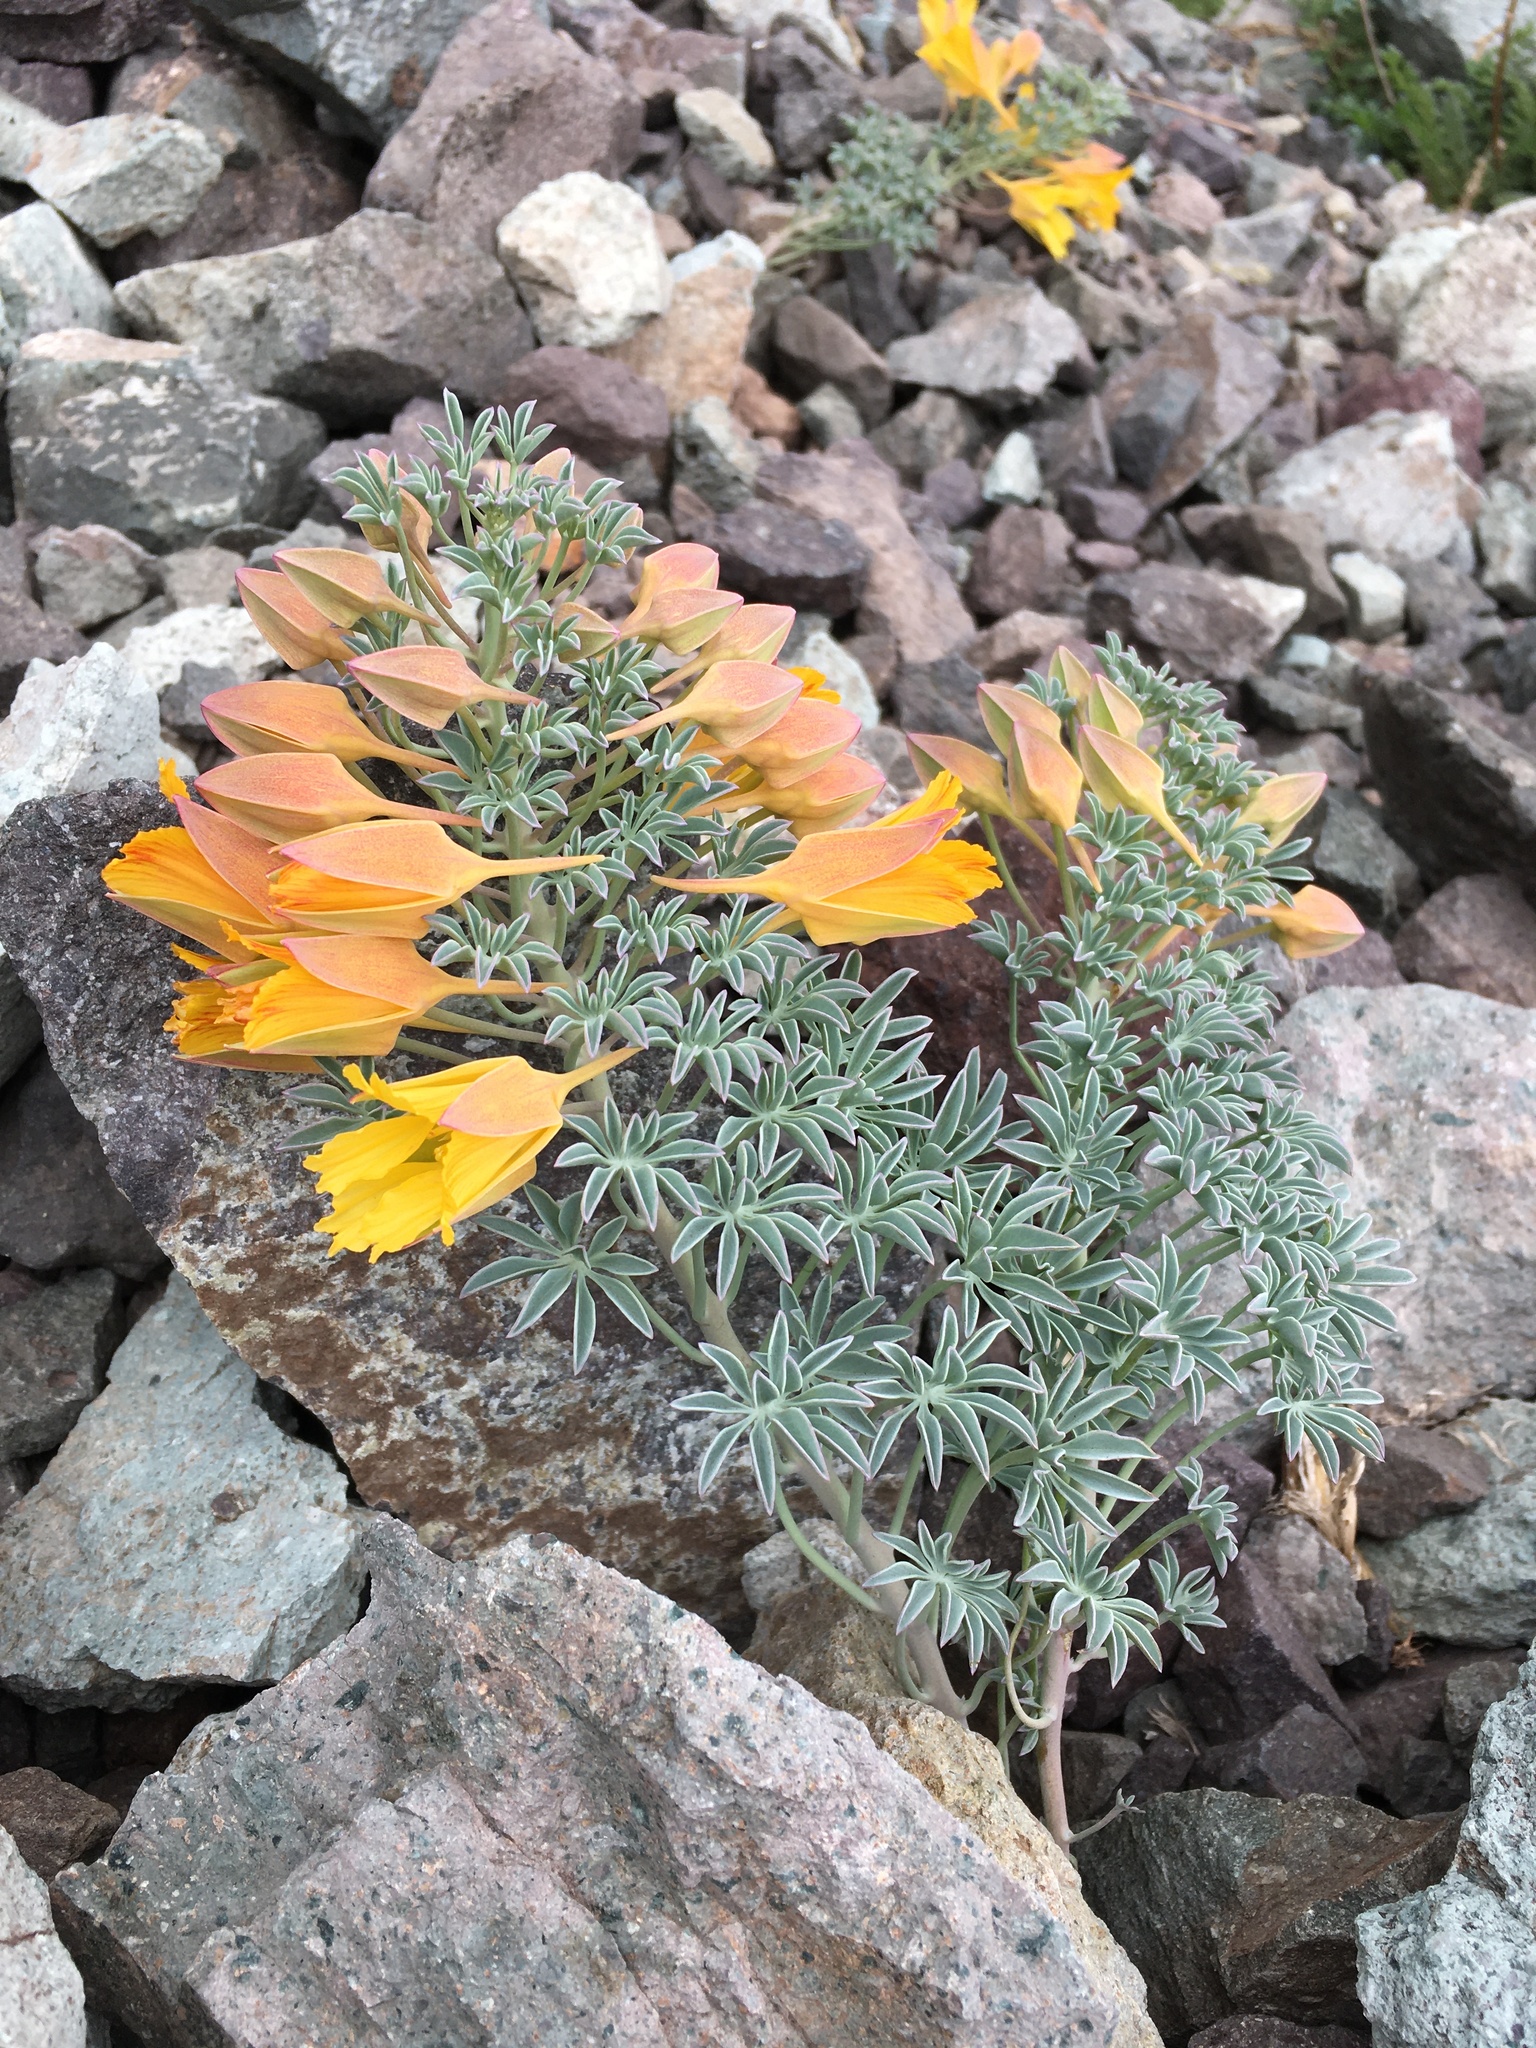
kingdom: Plantae
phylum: Tracheophyta
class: Magnoliopsida
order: Brassicales
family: Tropaeolaceae
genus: Tropaeolum
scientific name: Tropaeolum polyphyllum
